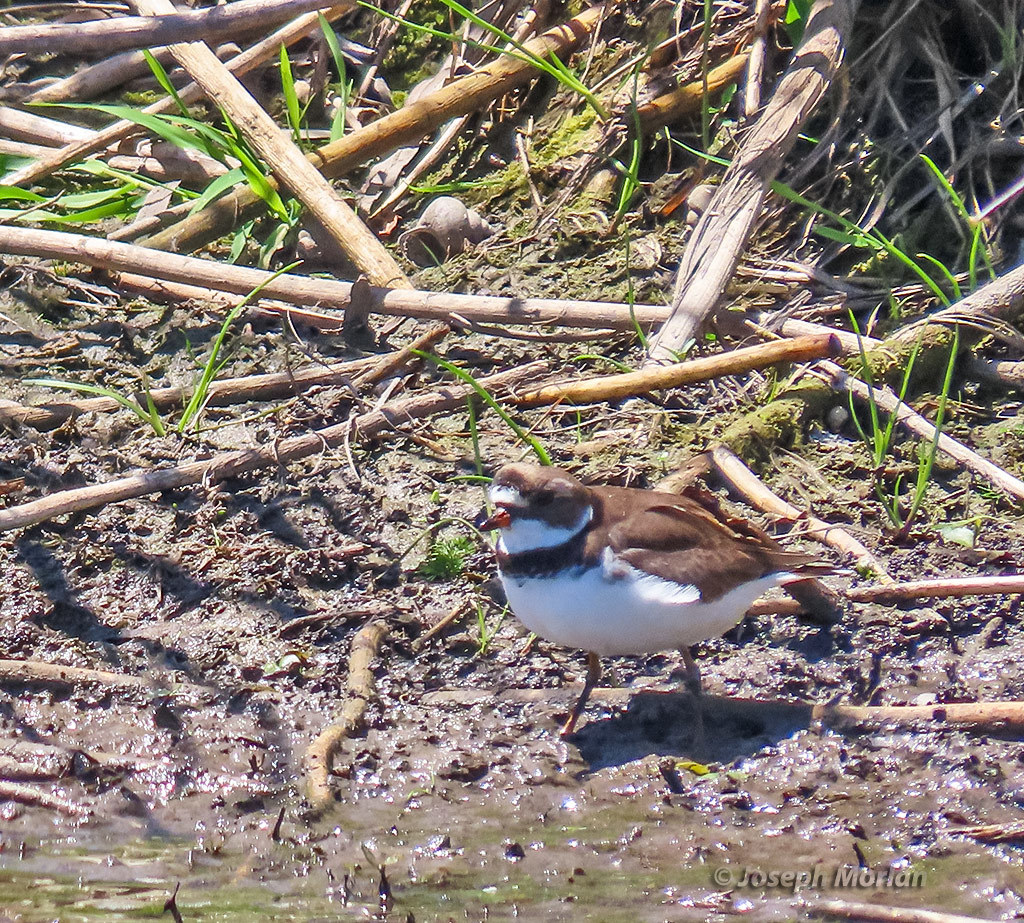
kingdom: Animalia
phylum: Chordata
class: Aves
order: Charadriiformes
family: Charadriidae
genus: Charadrius
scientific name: Charadrius semipalmatus
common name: Semipalmated plover
